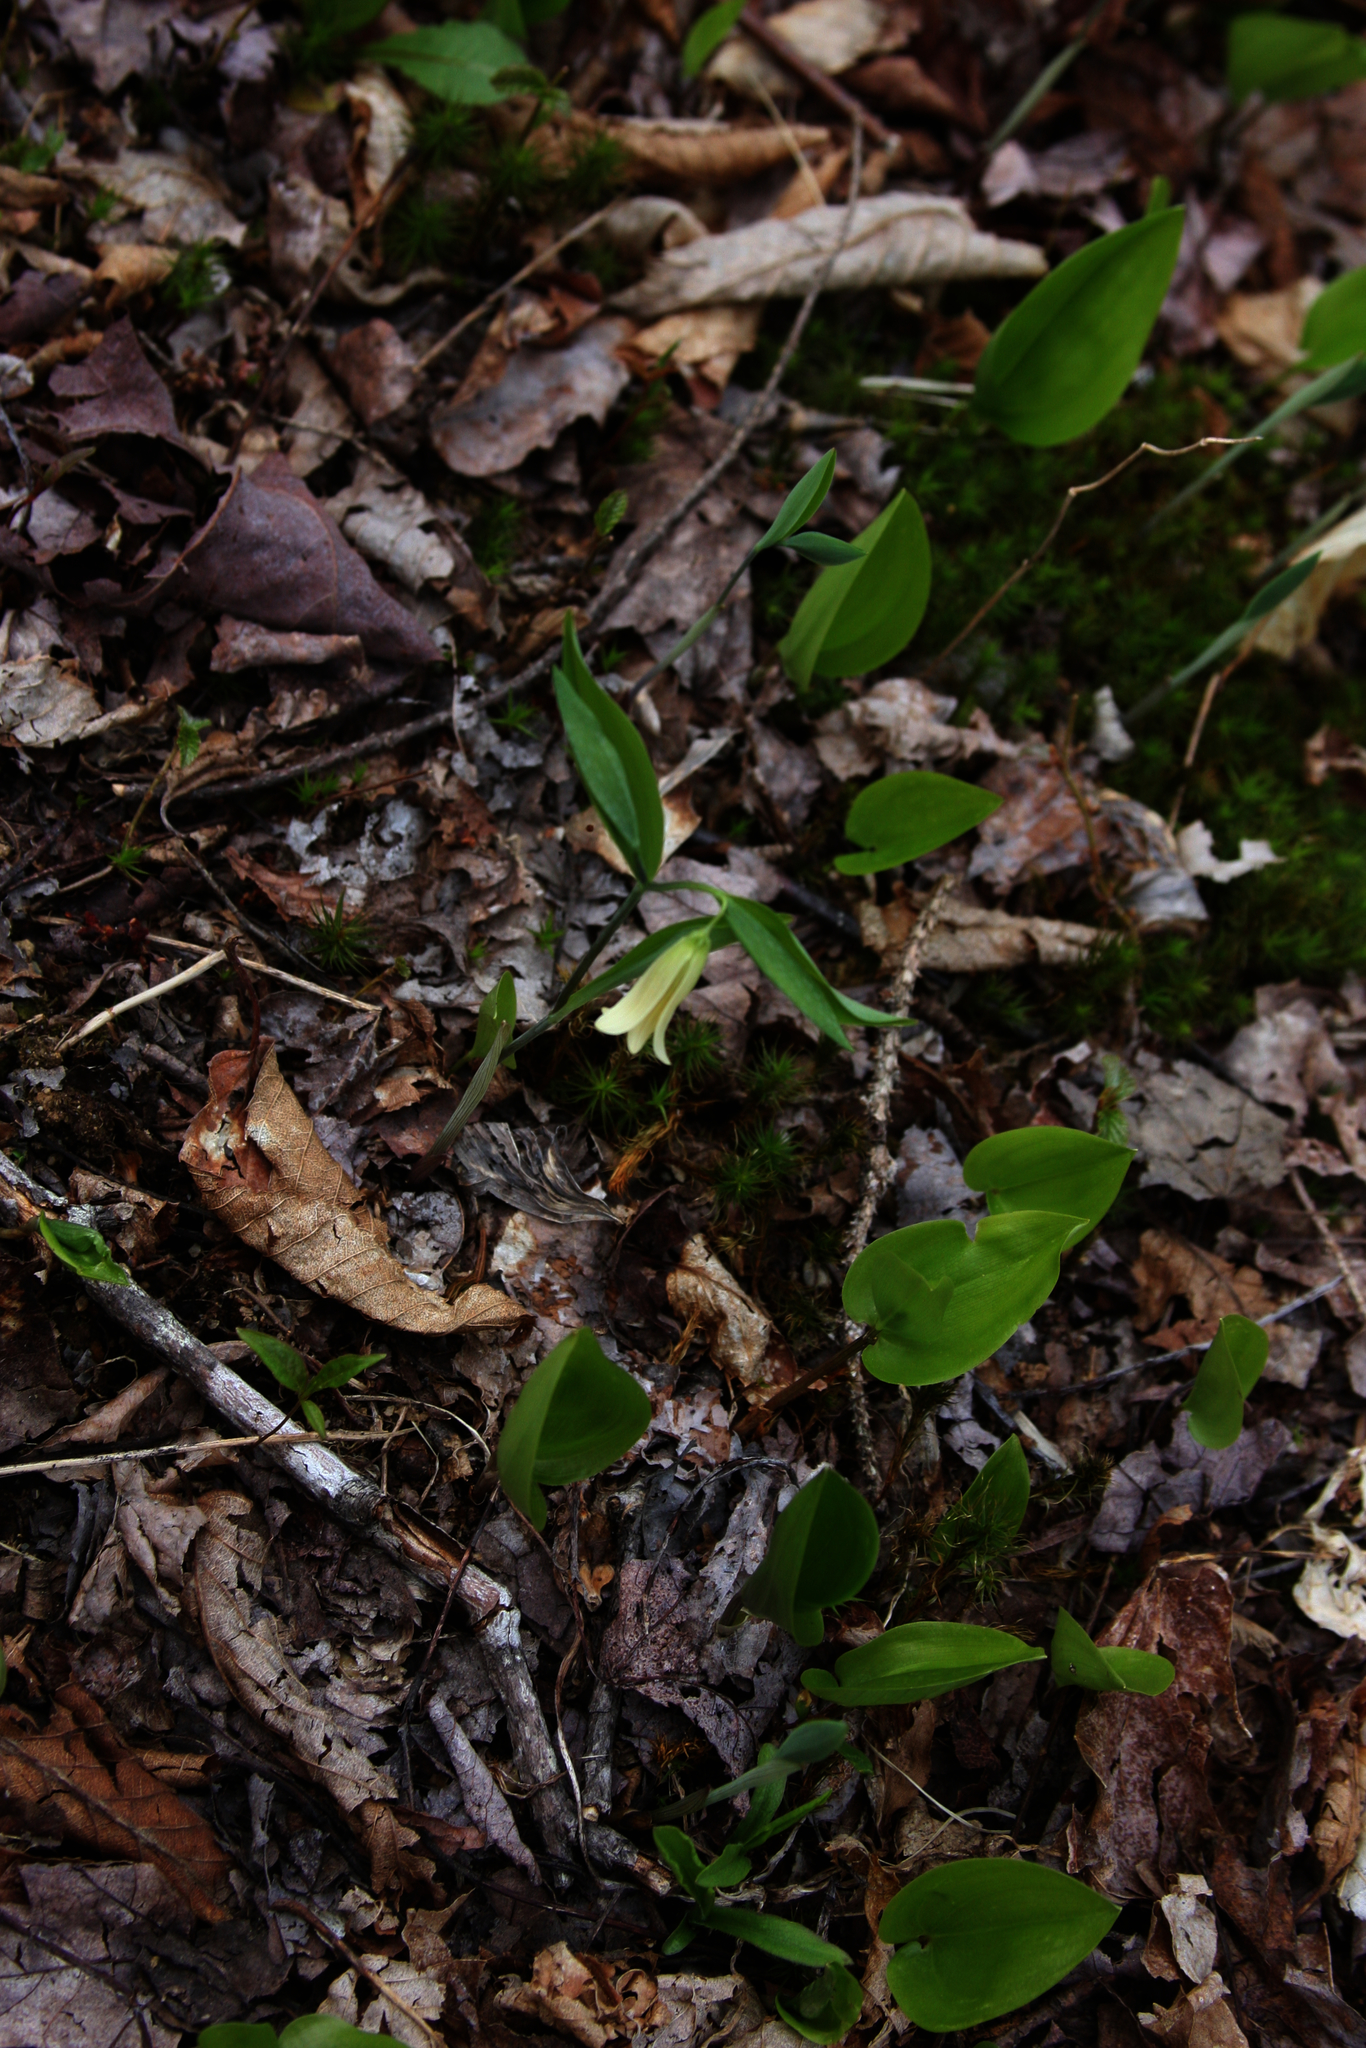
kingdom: Plantae
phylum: Tracheophyta
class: Liliopsida
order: Liliales
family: Colchicaceae
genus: Uvularia
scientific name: Uvularia sessilifolia
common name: Straw-lily
